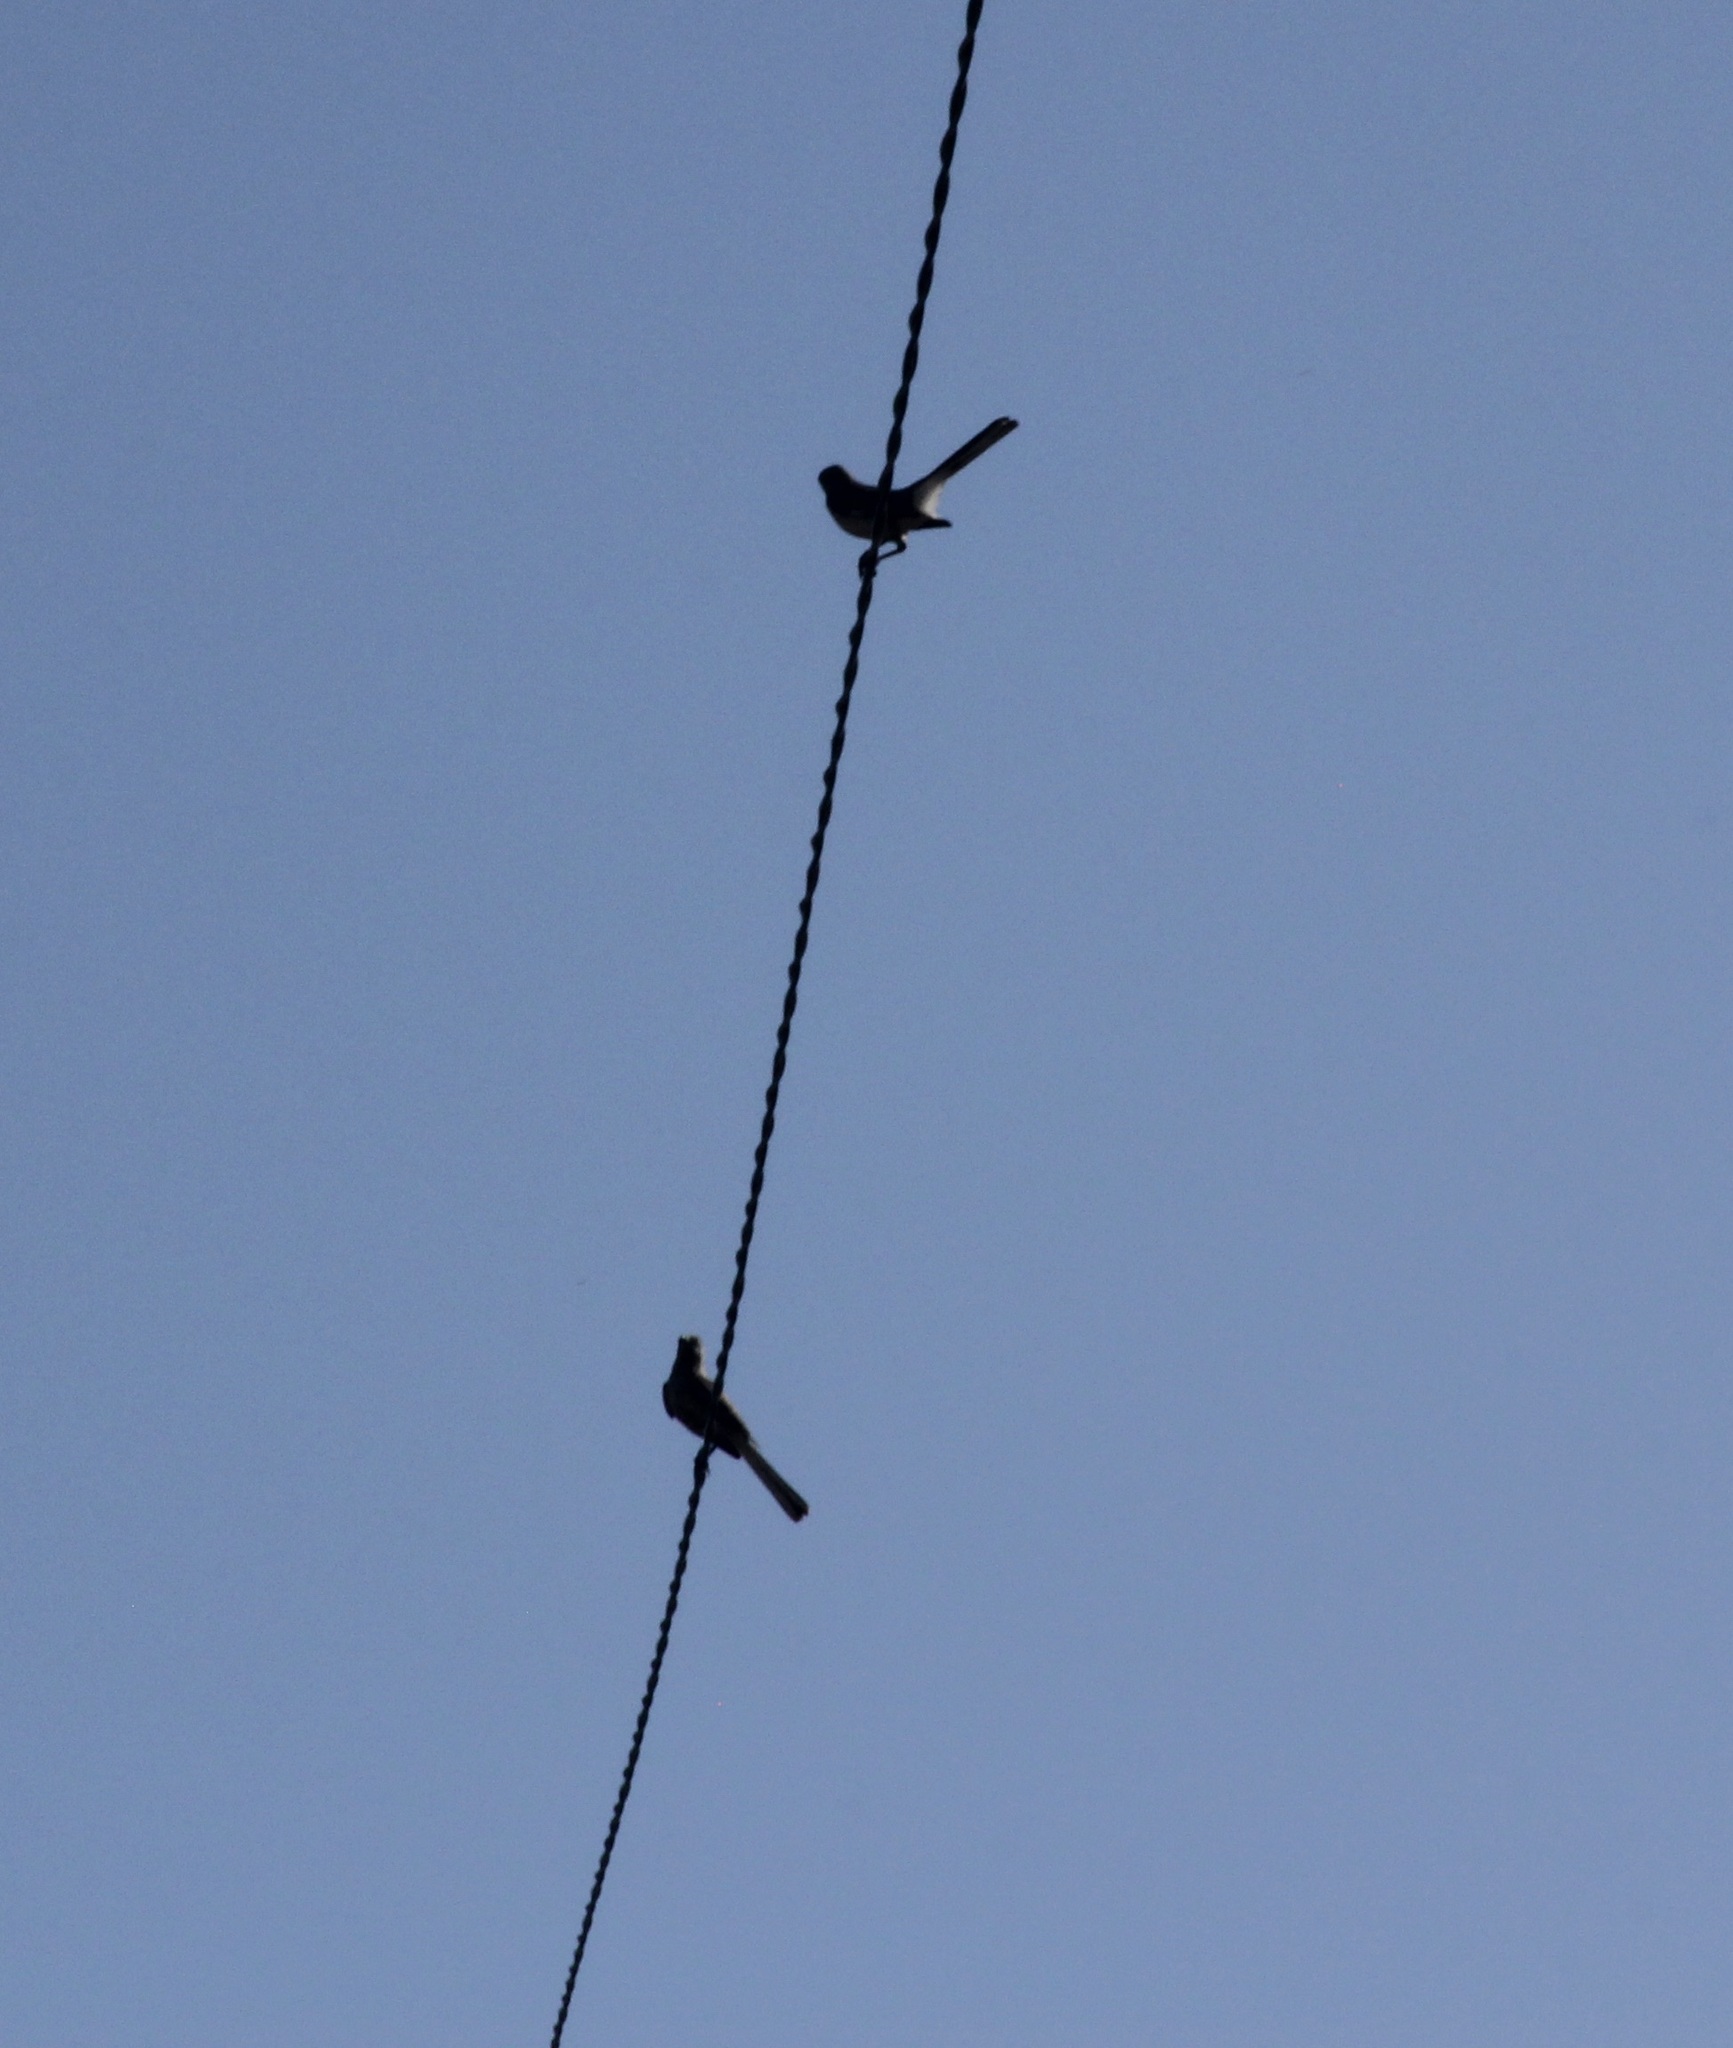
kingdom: Animalia
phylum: Chordata
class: Aves
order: Passeriformes
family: Mimidae
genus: Mimus
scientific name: Mimus polyglottos
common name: Northern mockingbird
